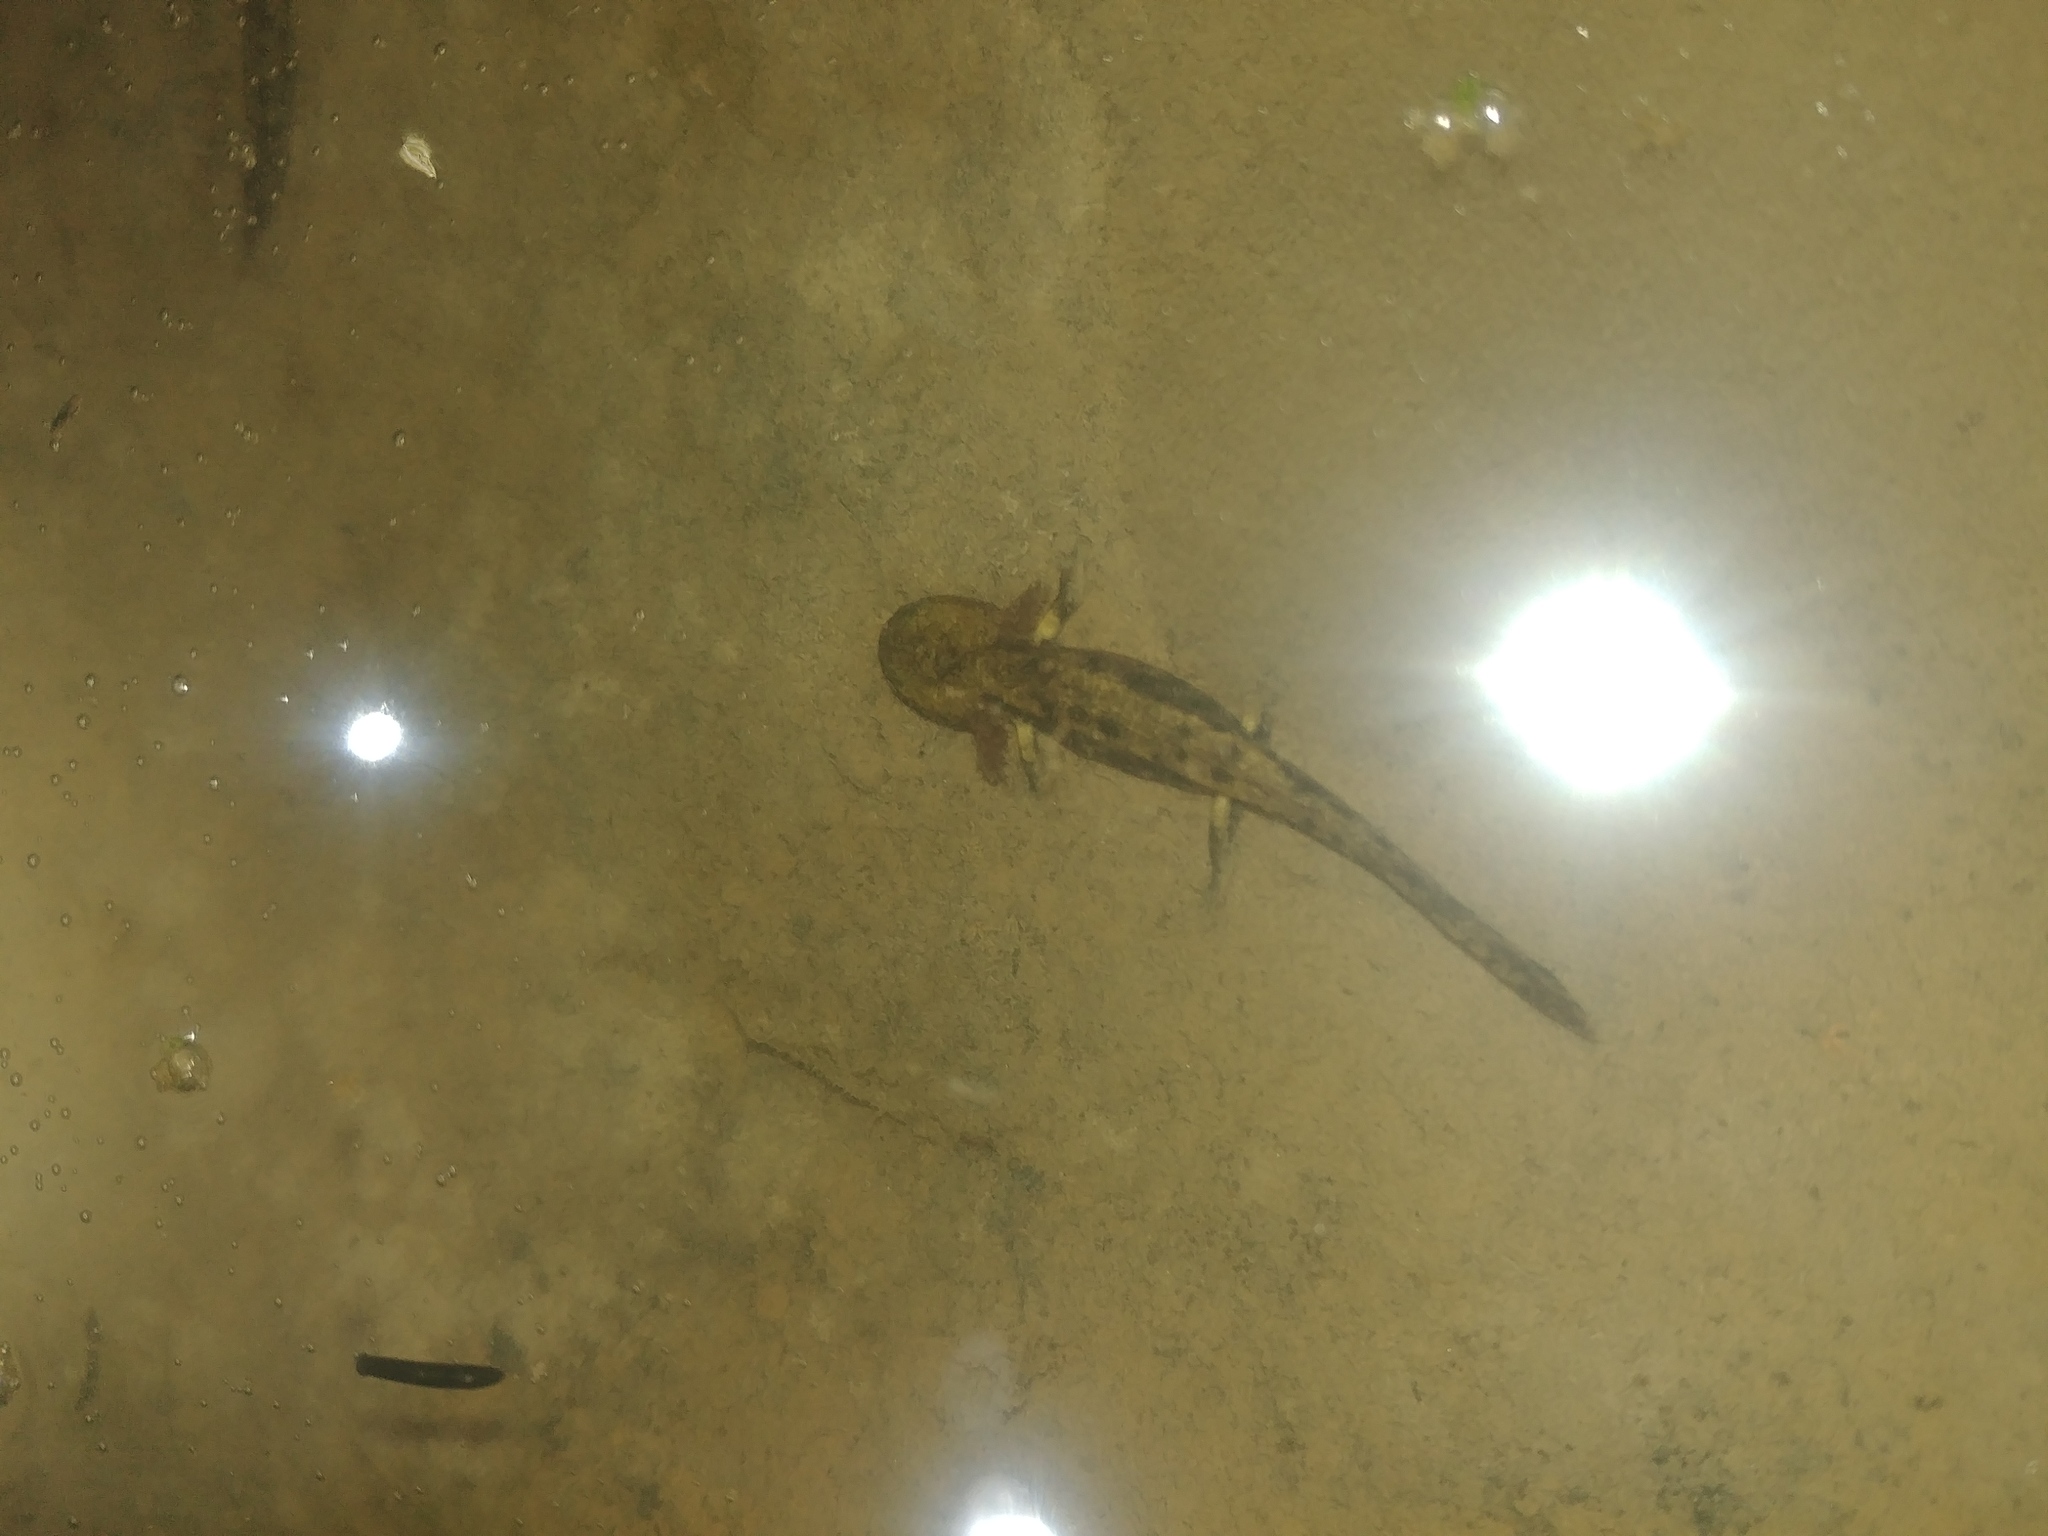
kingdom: Animalia
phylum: Chordata
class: Amphibia
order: Caudata
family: Salamandridae
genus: Salamandra
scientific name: Salamandra salamandra
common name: Fire salamander
